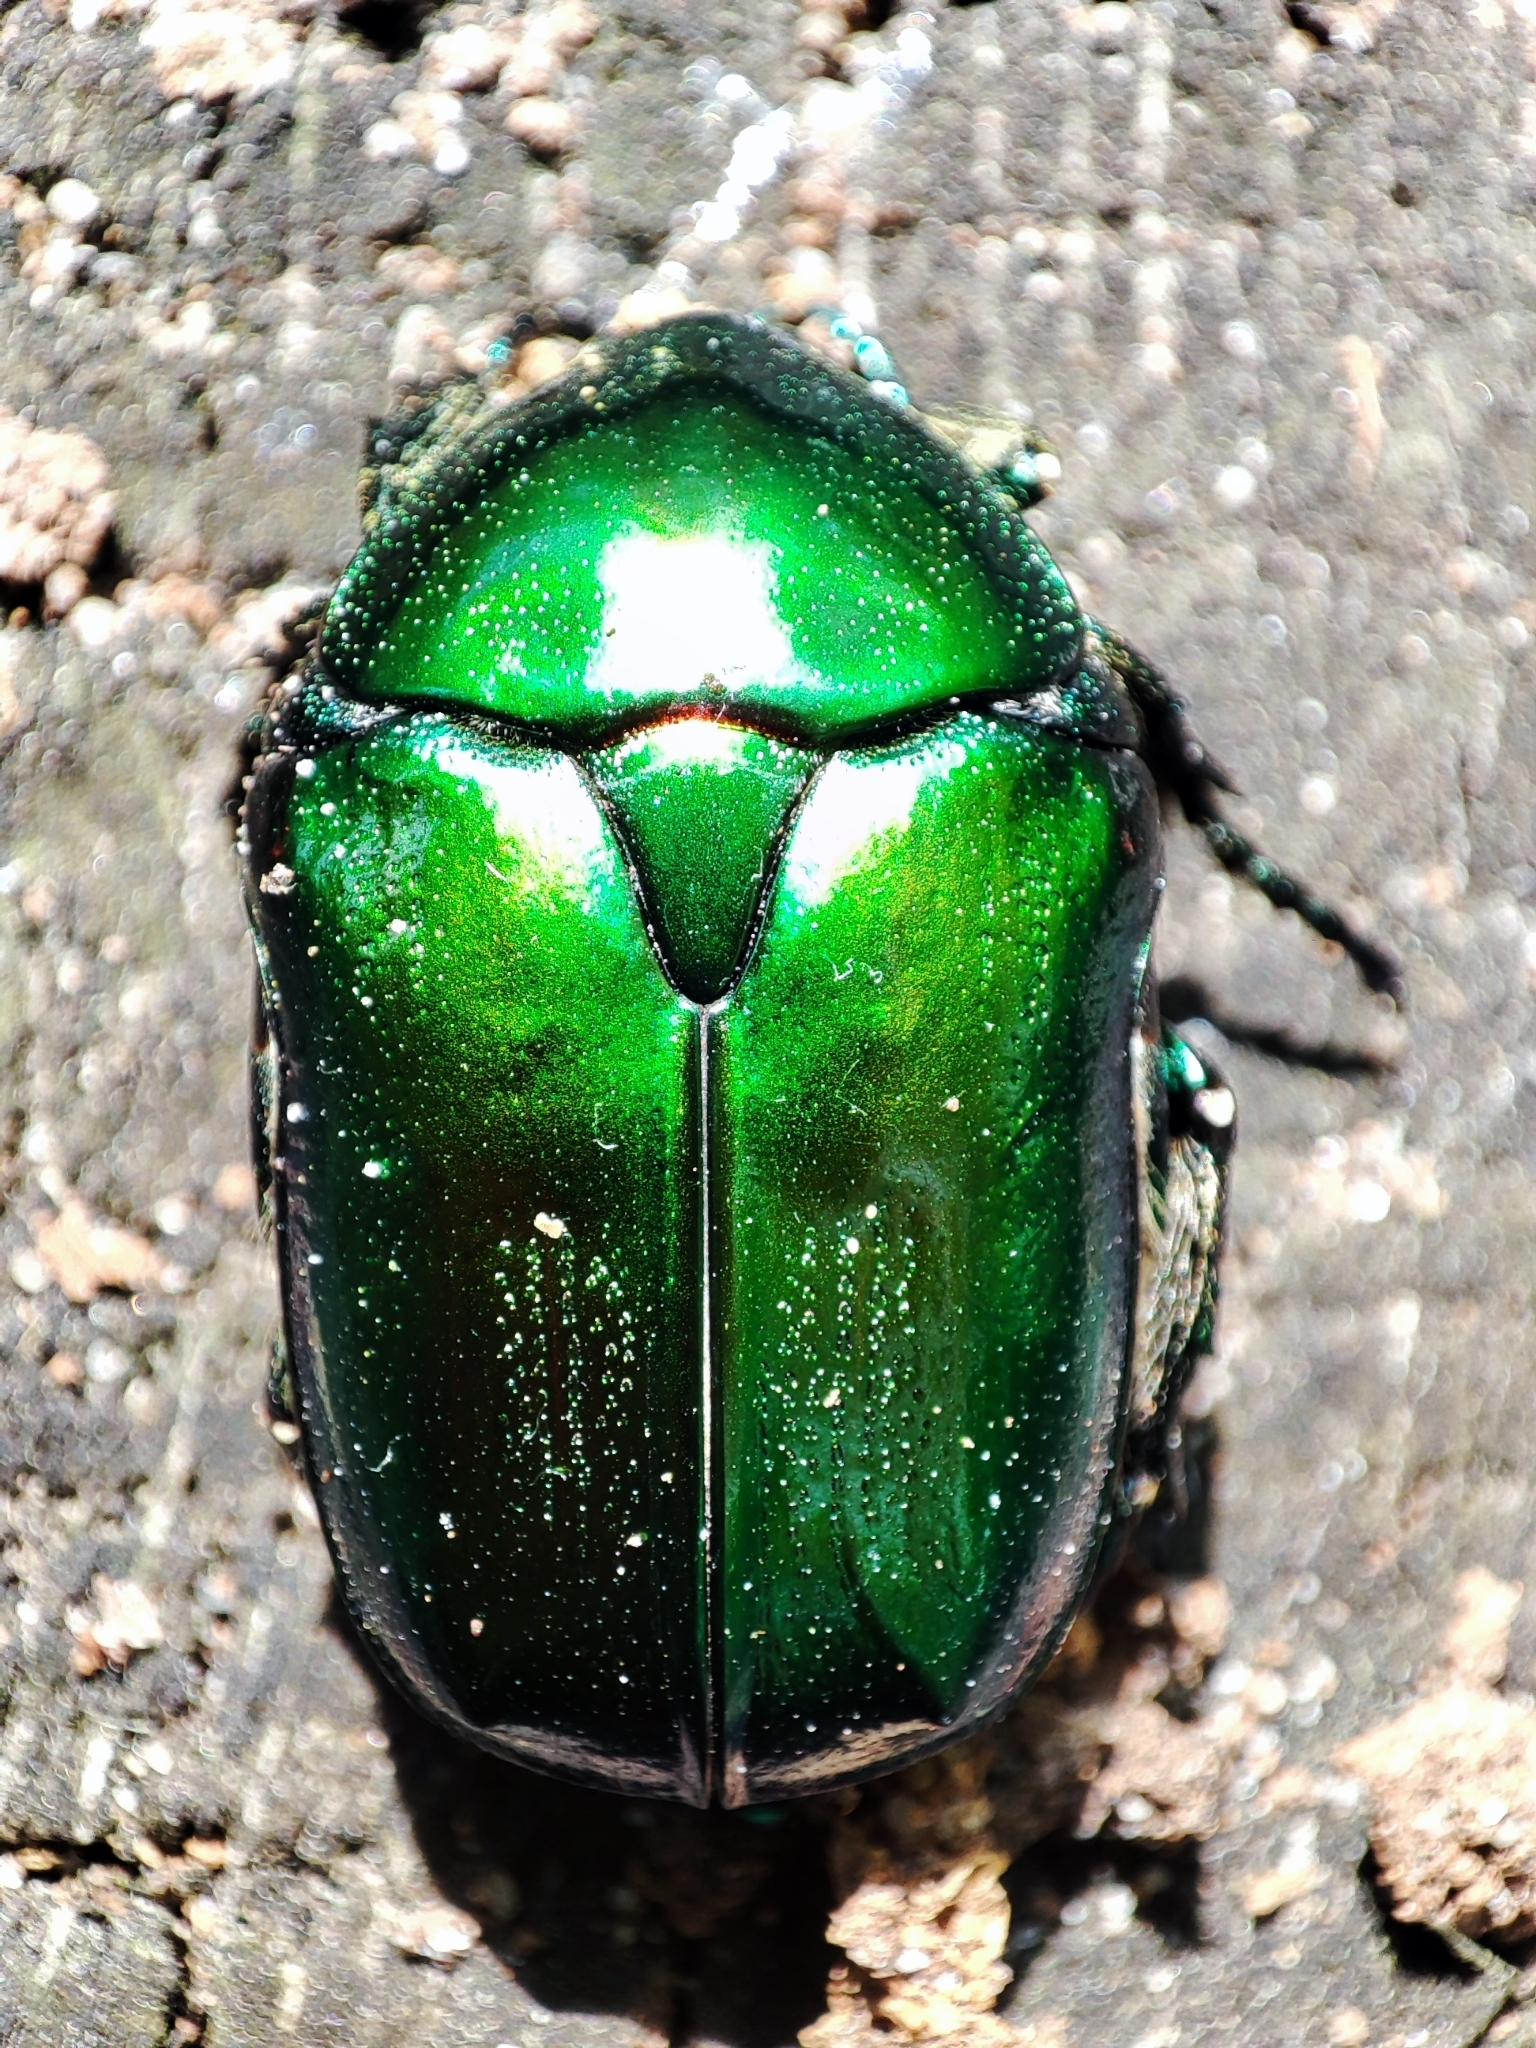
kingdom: Animalia
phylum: Arthropoda
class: Insecta
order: Coleoptera
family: Scarabaeidae
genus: Protaetia
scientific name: Protaetia affinis
